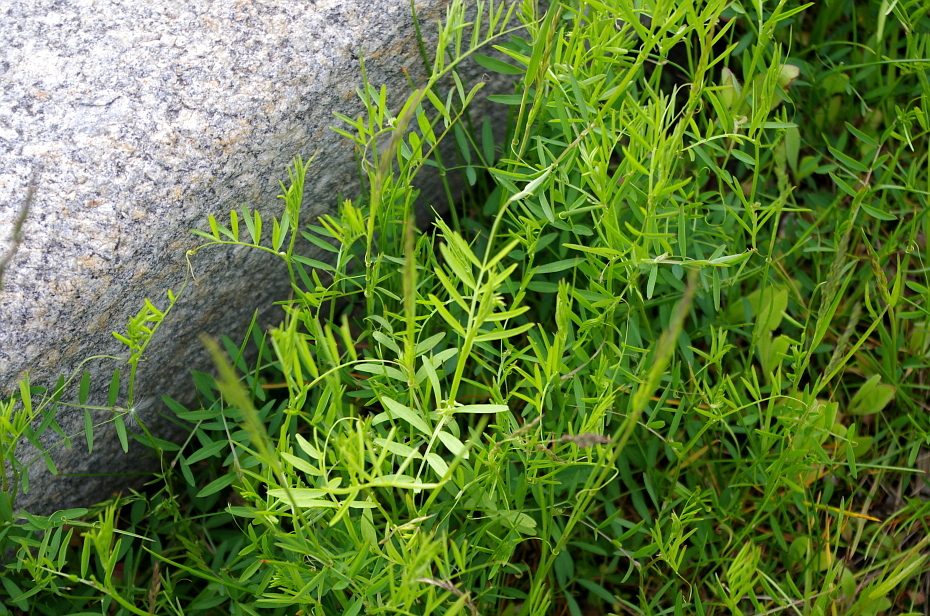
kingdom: Plantae
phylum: Tracheophyta
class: Magnoliopsida
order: Fabales
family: Fabaceae
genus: Vicia
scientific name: Vicia cracca
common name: Bird vetch
